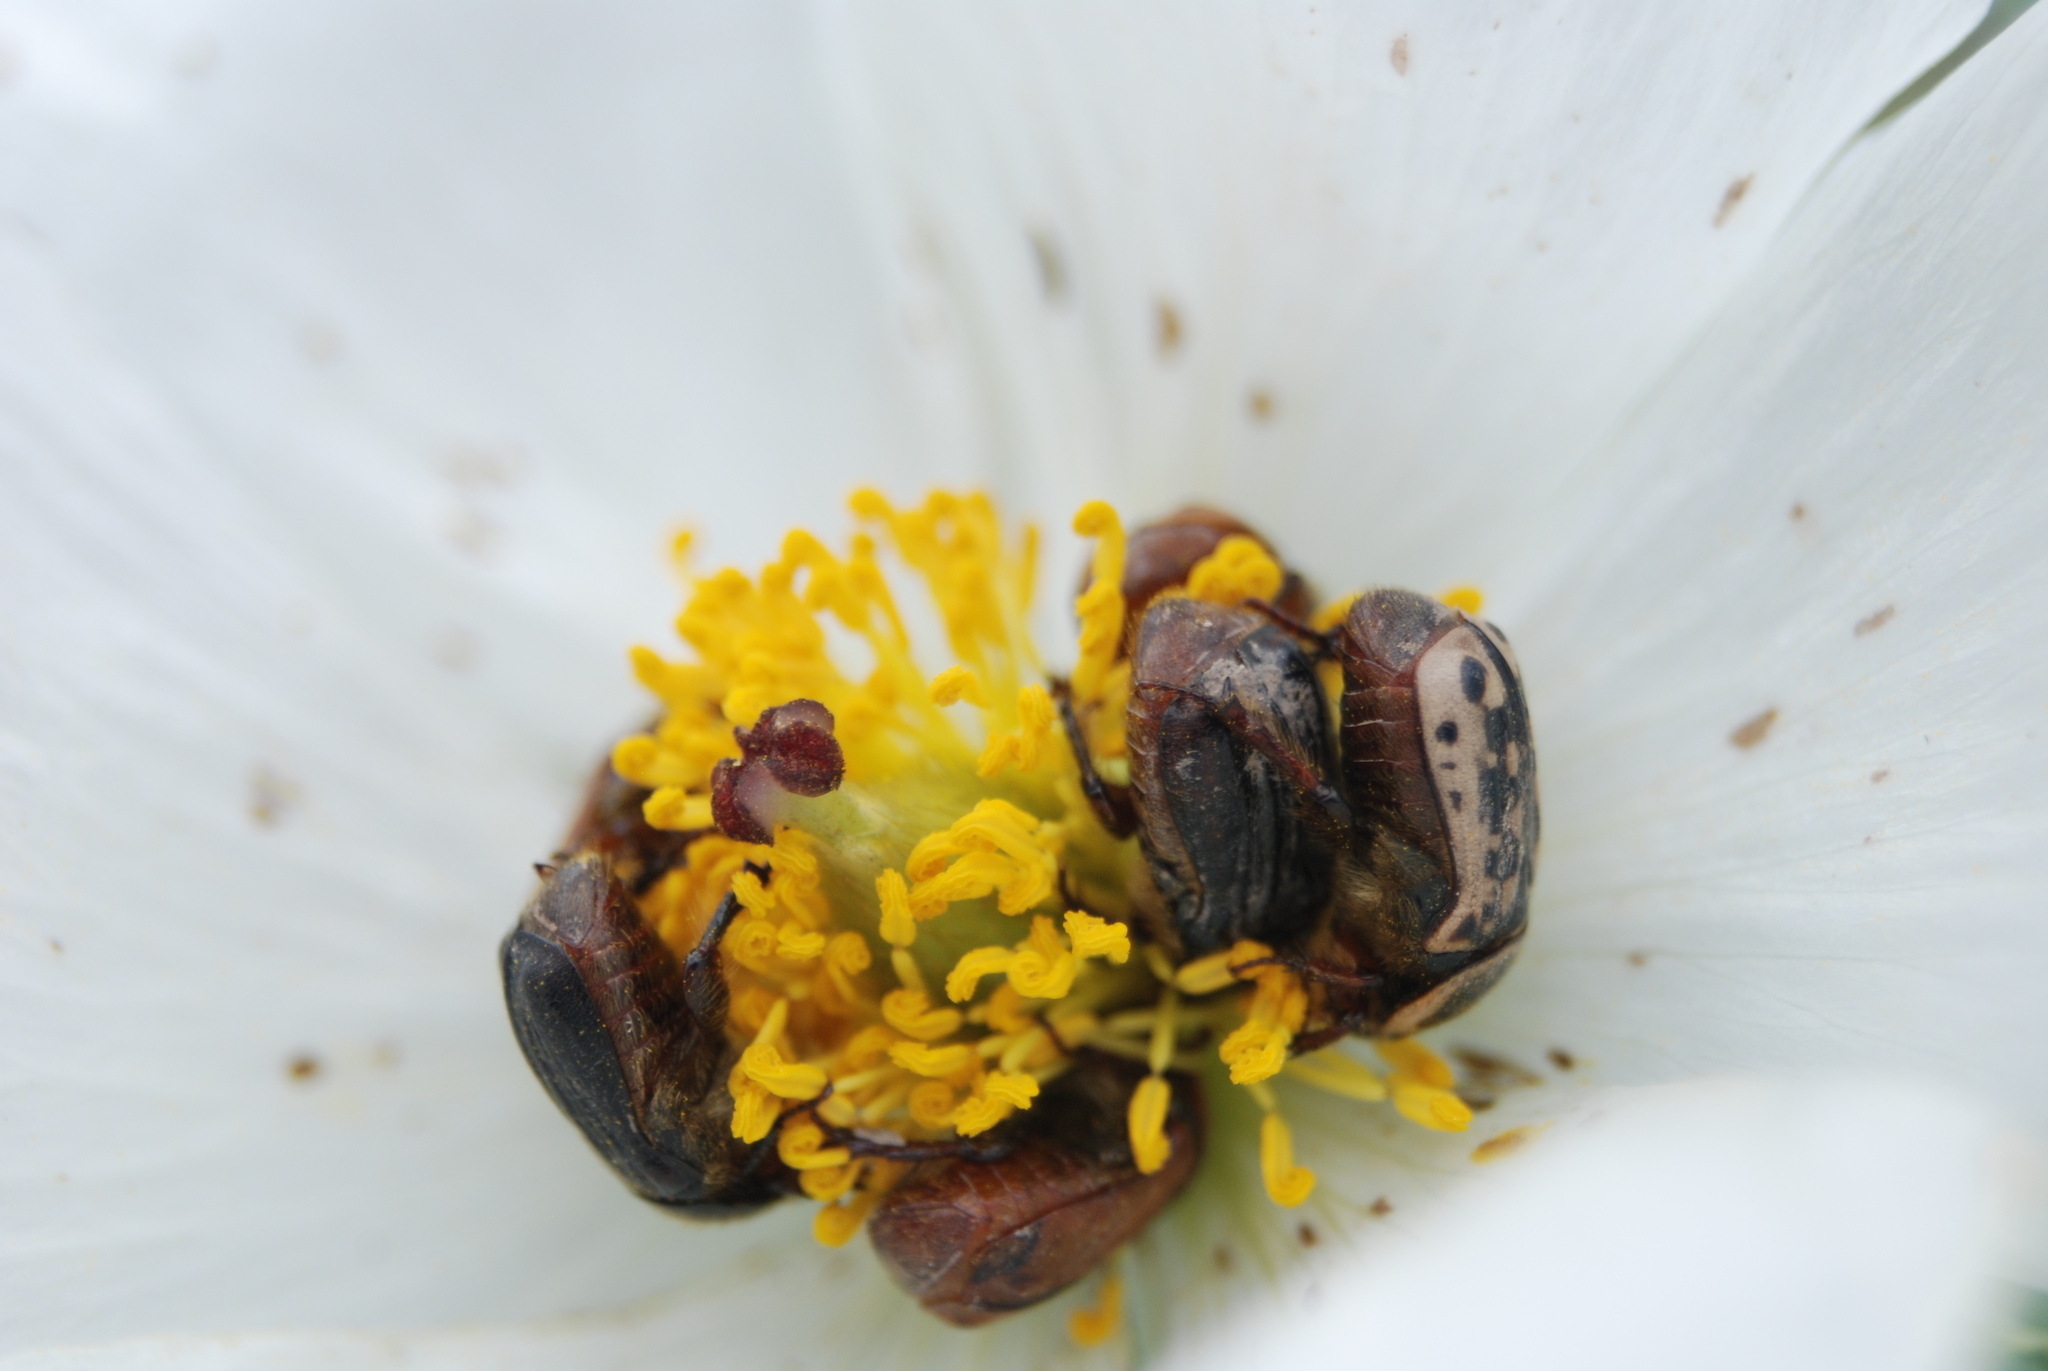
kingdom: Animalia
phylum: Arthropoda
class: Insecta
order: Coleoptera
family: Scarabaeidae
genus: Euphoria
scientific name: Euphoria kernii
